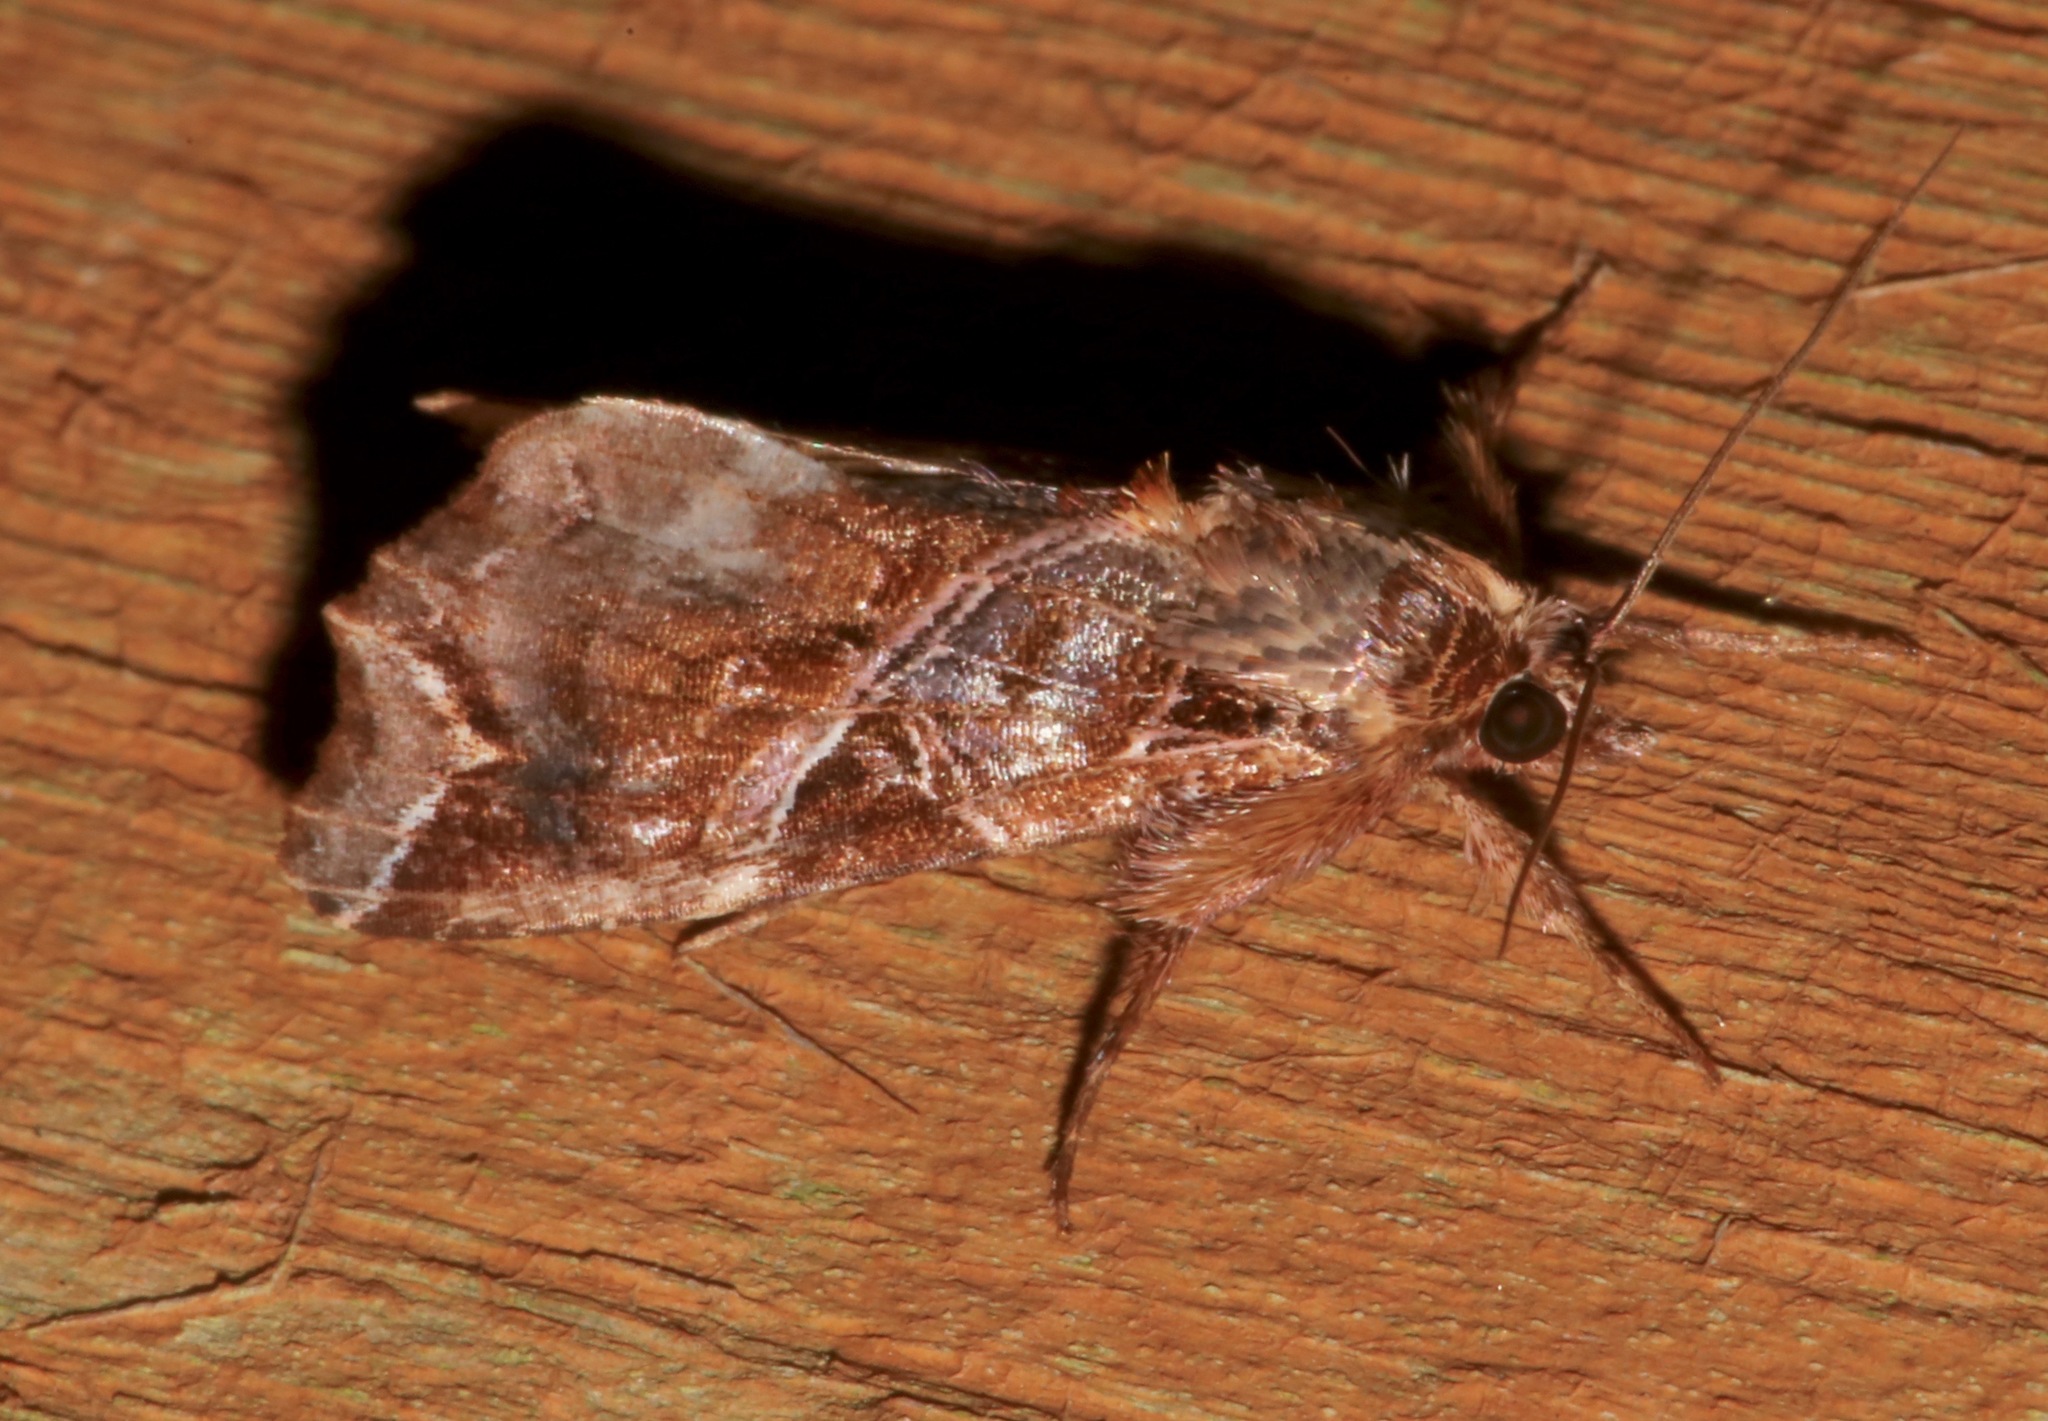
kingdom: Animalia
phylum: Arthropoda
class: Insecta
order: Lepidoptera
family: Noctuidae
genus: Callopistria
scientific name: Callopistria floridensis
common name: Florida fern moth
